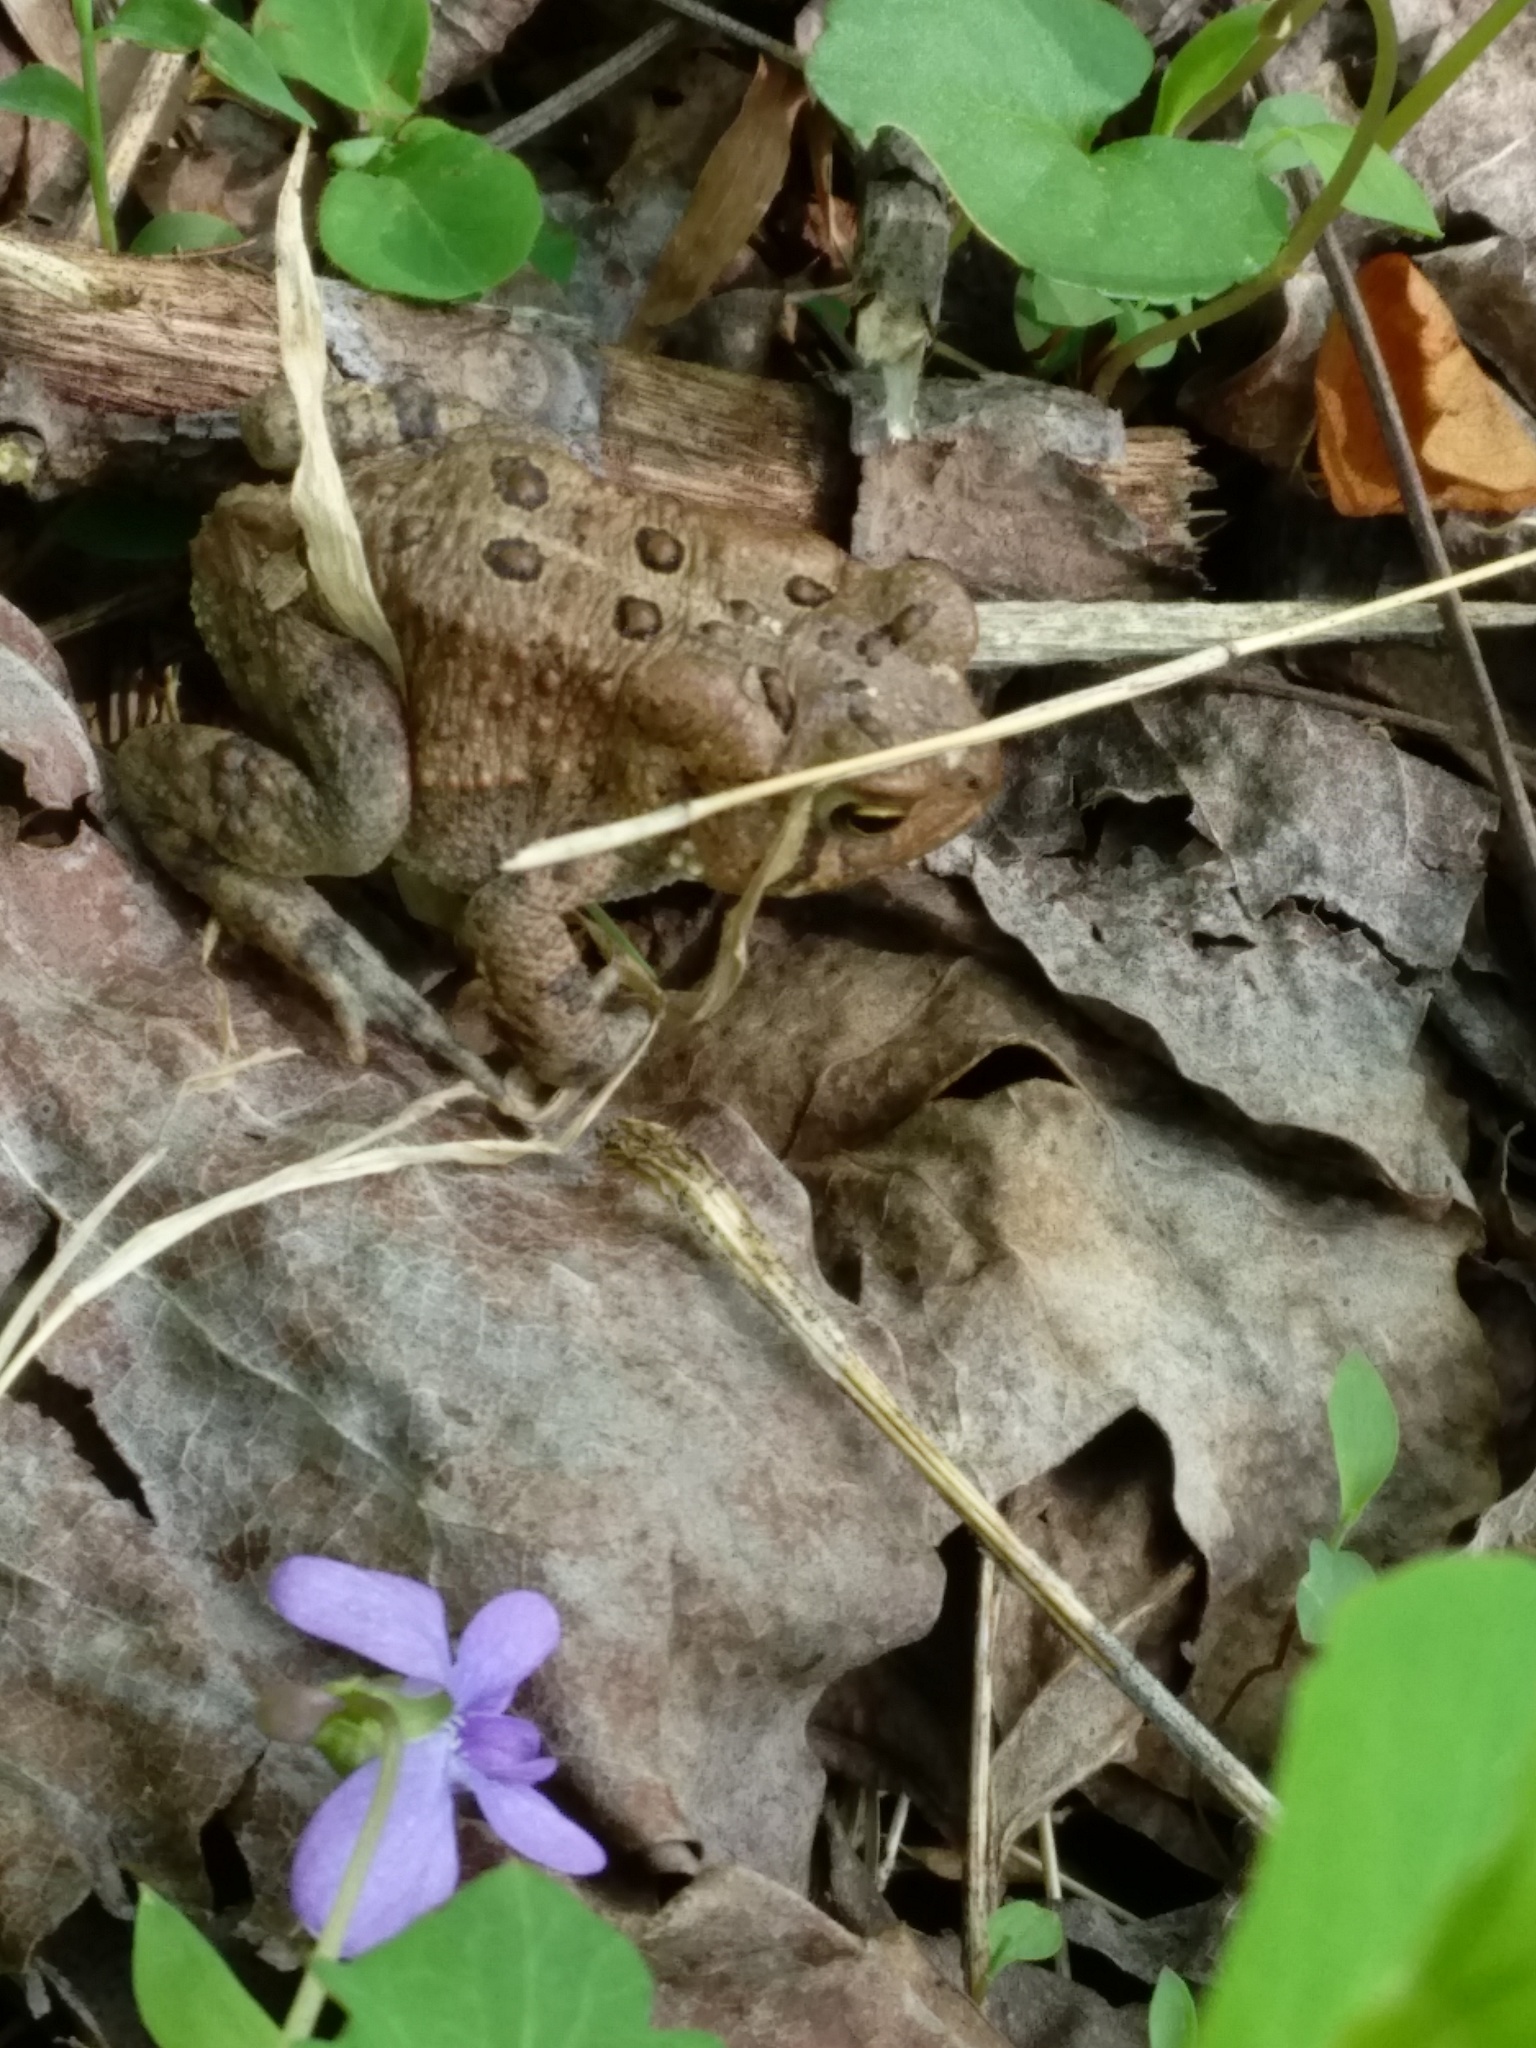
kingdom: Animalia
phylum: Chordata
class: Amphibia
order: Anura
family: Bufonidae
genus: Anaxyrus
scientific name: Anaxyrus americanus
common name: American toad
